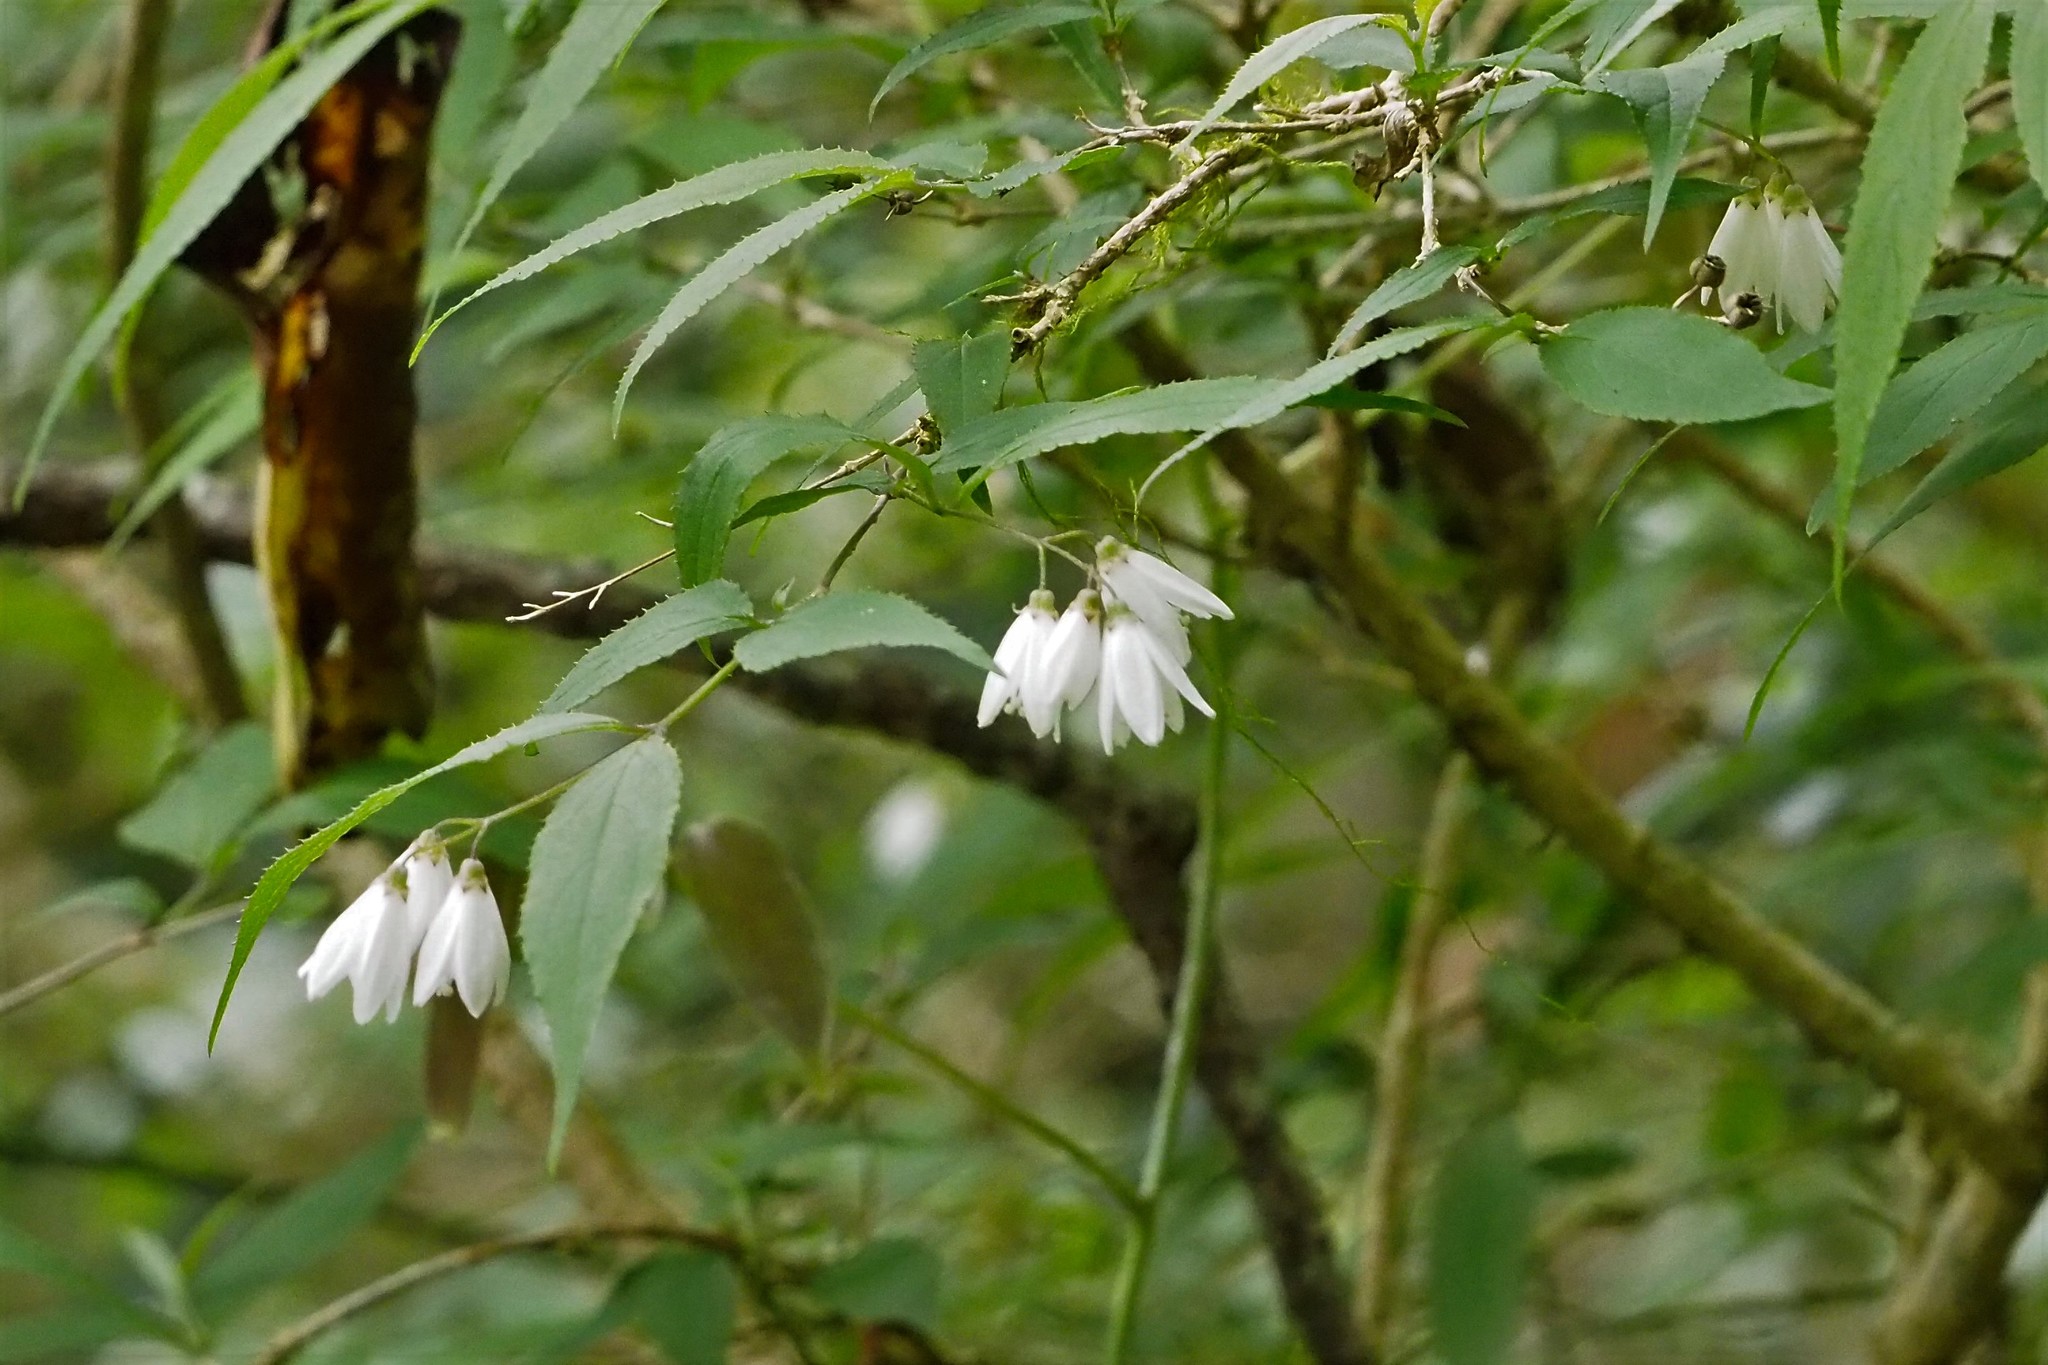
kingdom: Plantae
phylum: Tracheophyta
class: Magnoliopsida
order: Cornales
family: Hydrangeaceae
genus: Deutzia
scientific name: Deutzia taiwanensis
